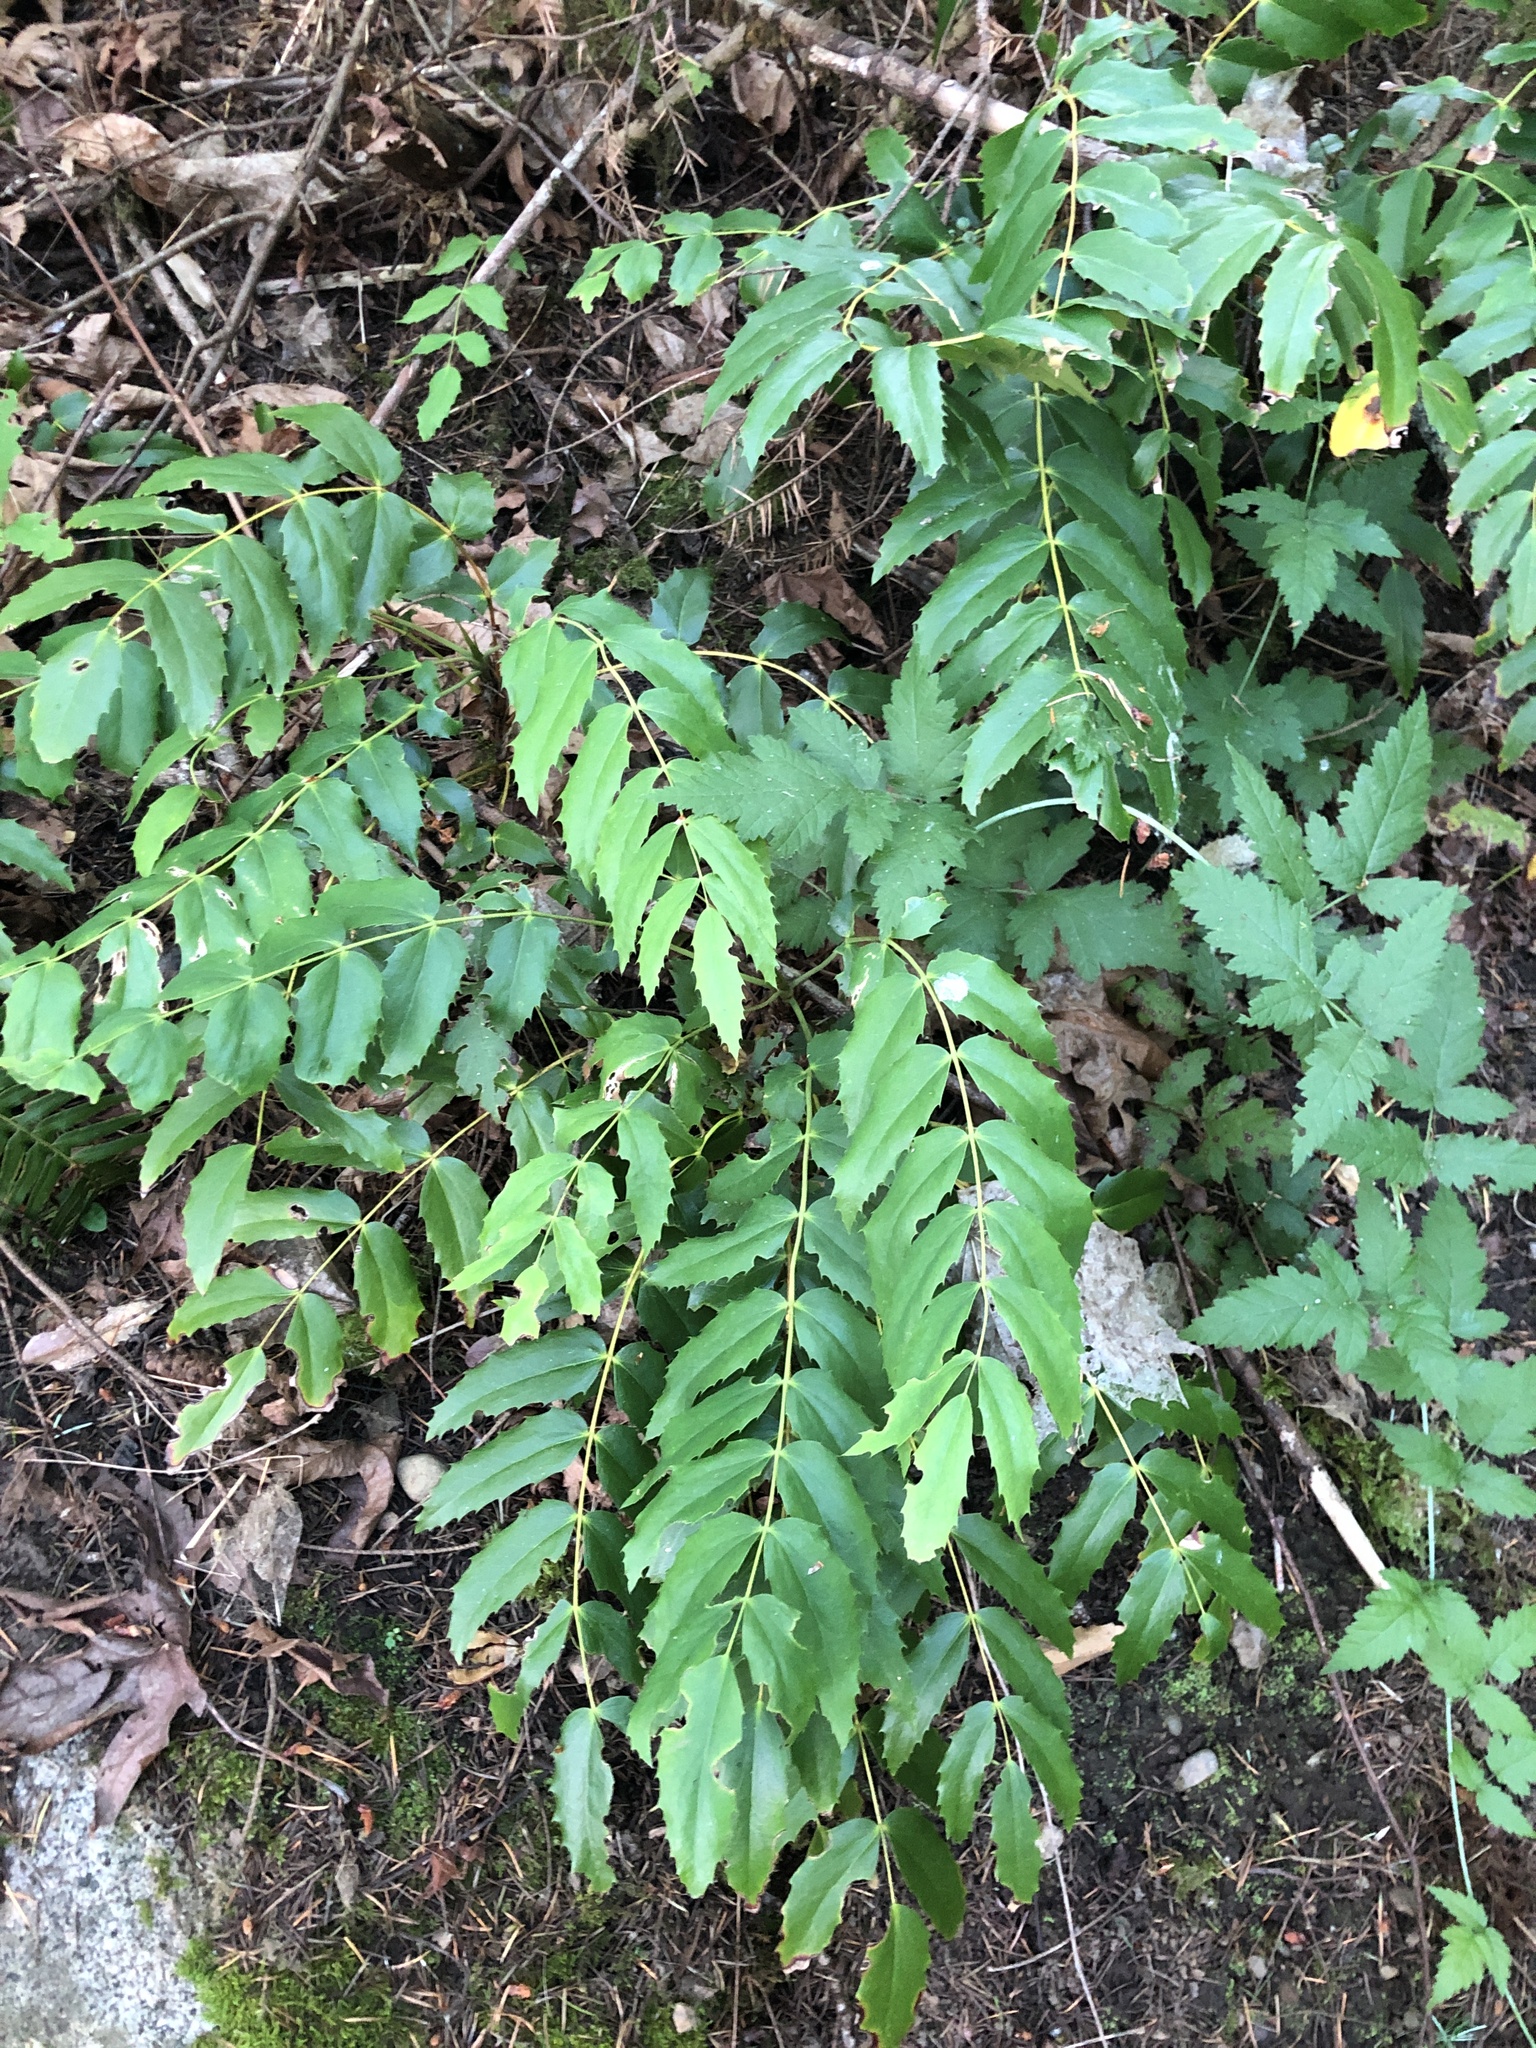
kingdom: Plantae
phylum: Tracheophyta
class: Magnoliopsida
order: Ranunculales
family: Berberidaceae
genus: Mahonia
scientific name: Mahonia nervosa
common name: Cascade oregon-grape
